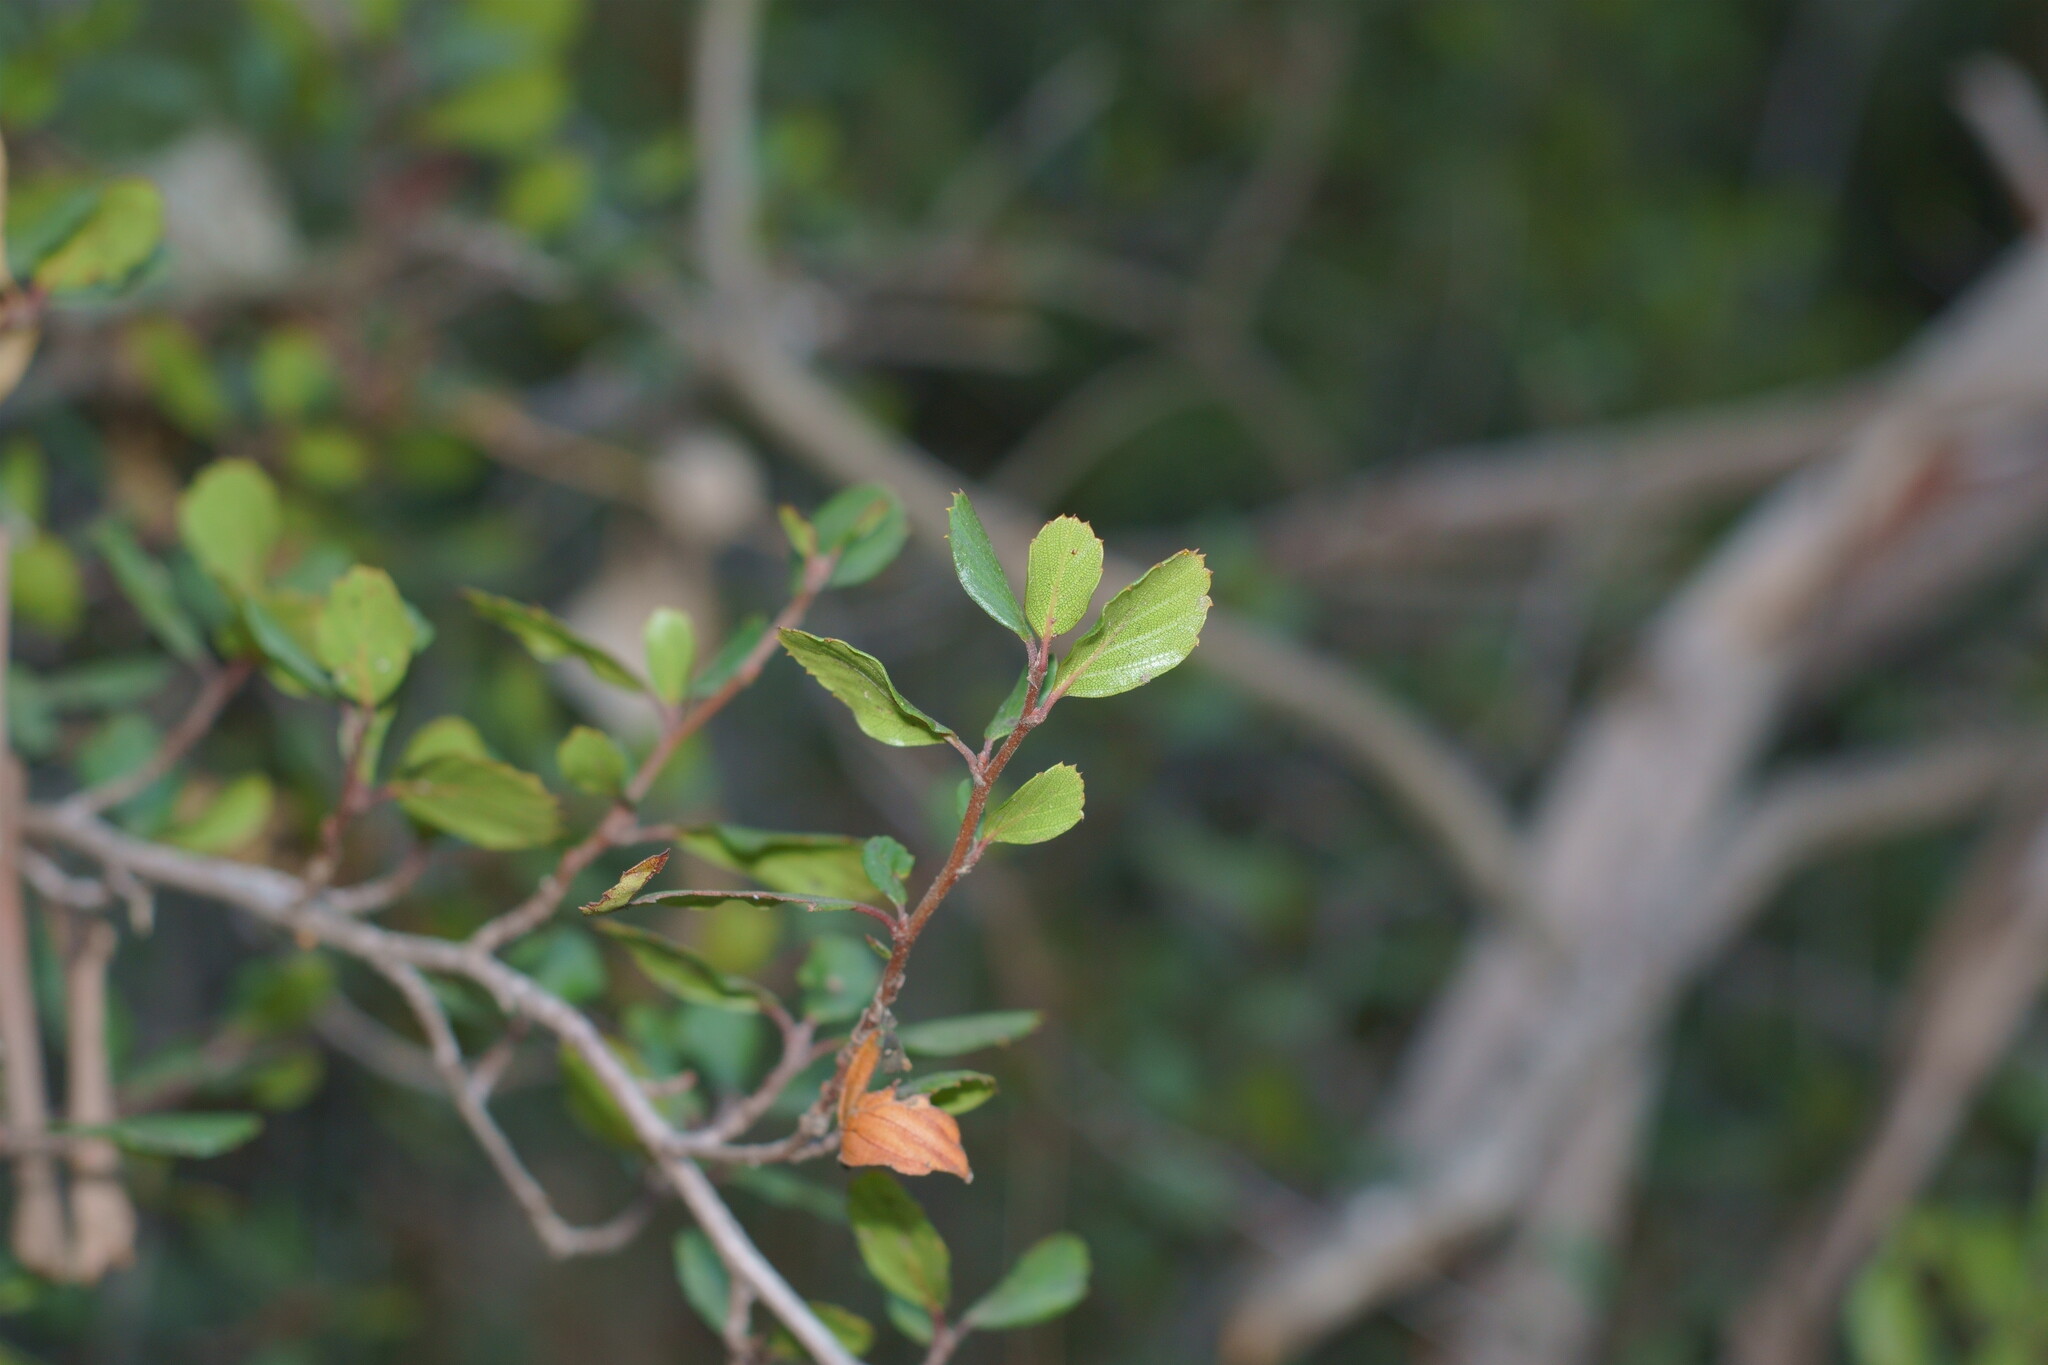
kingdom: Plantae
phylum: Tracheophyta
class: Magnoliopsida
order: Rosales
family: Rosaceae
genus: Cercocarpus
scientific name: Cercocarpus montanus
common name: Alder-leaf cercocarpus
